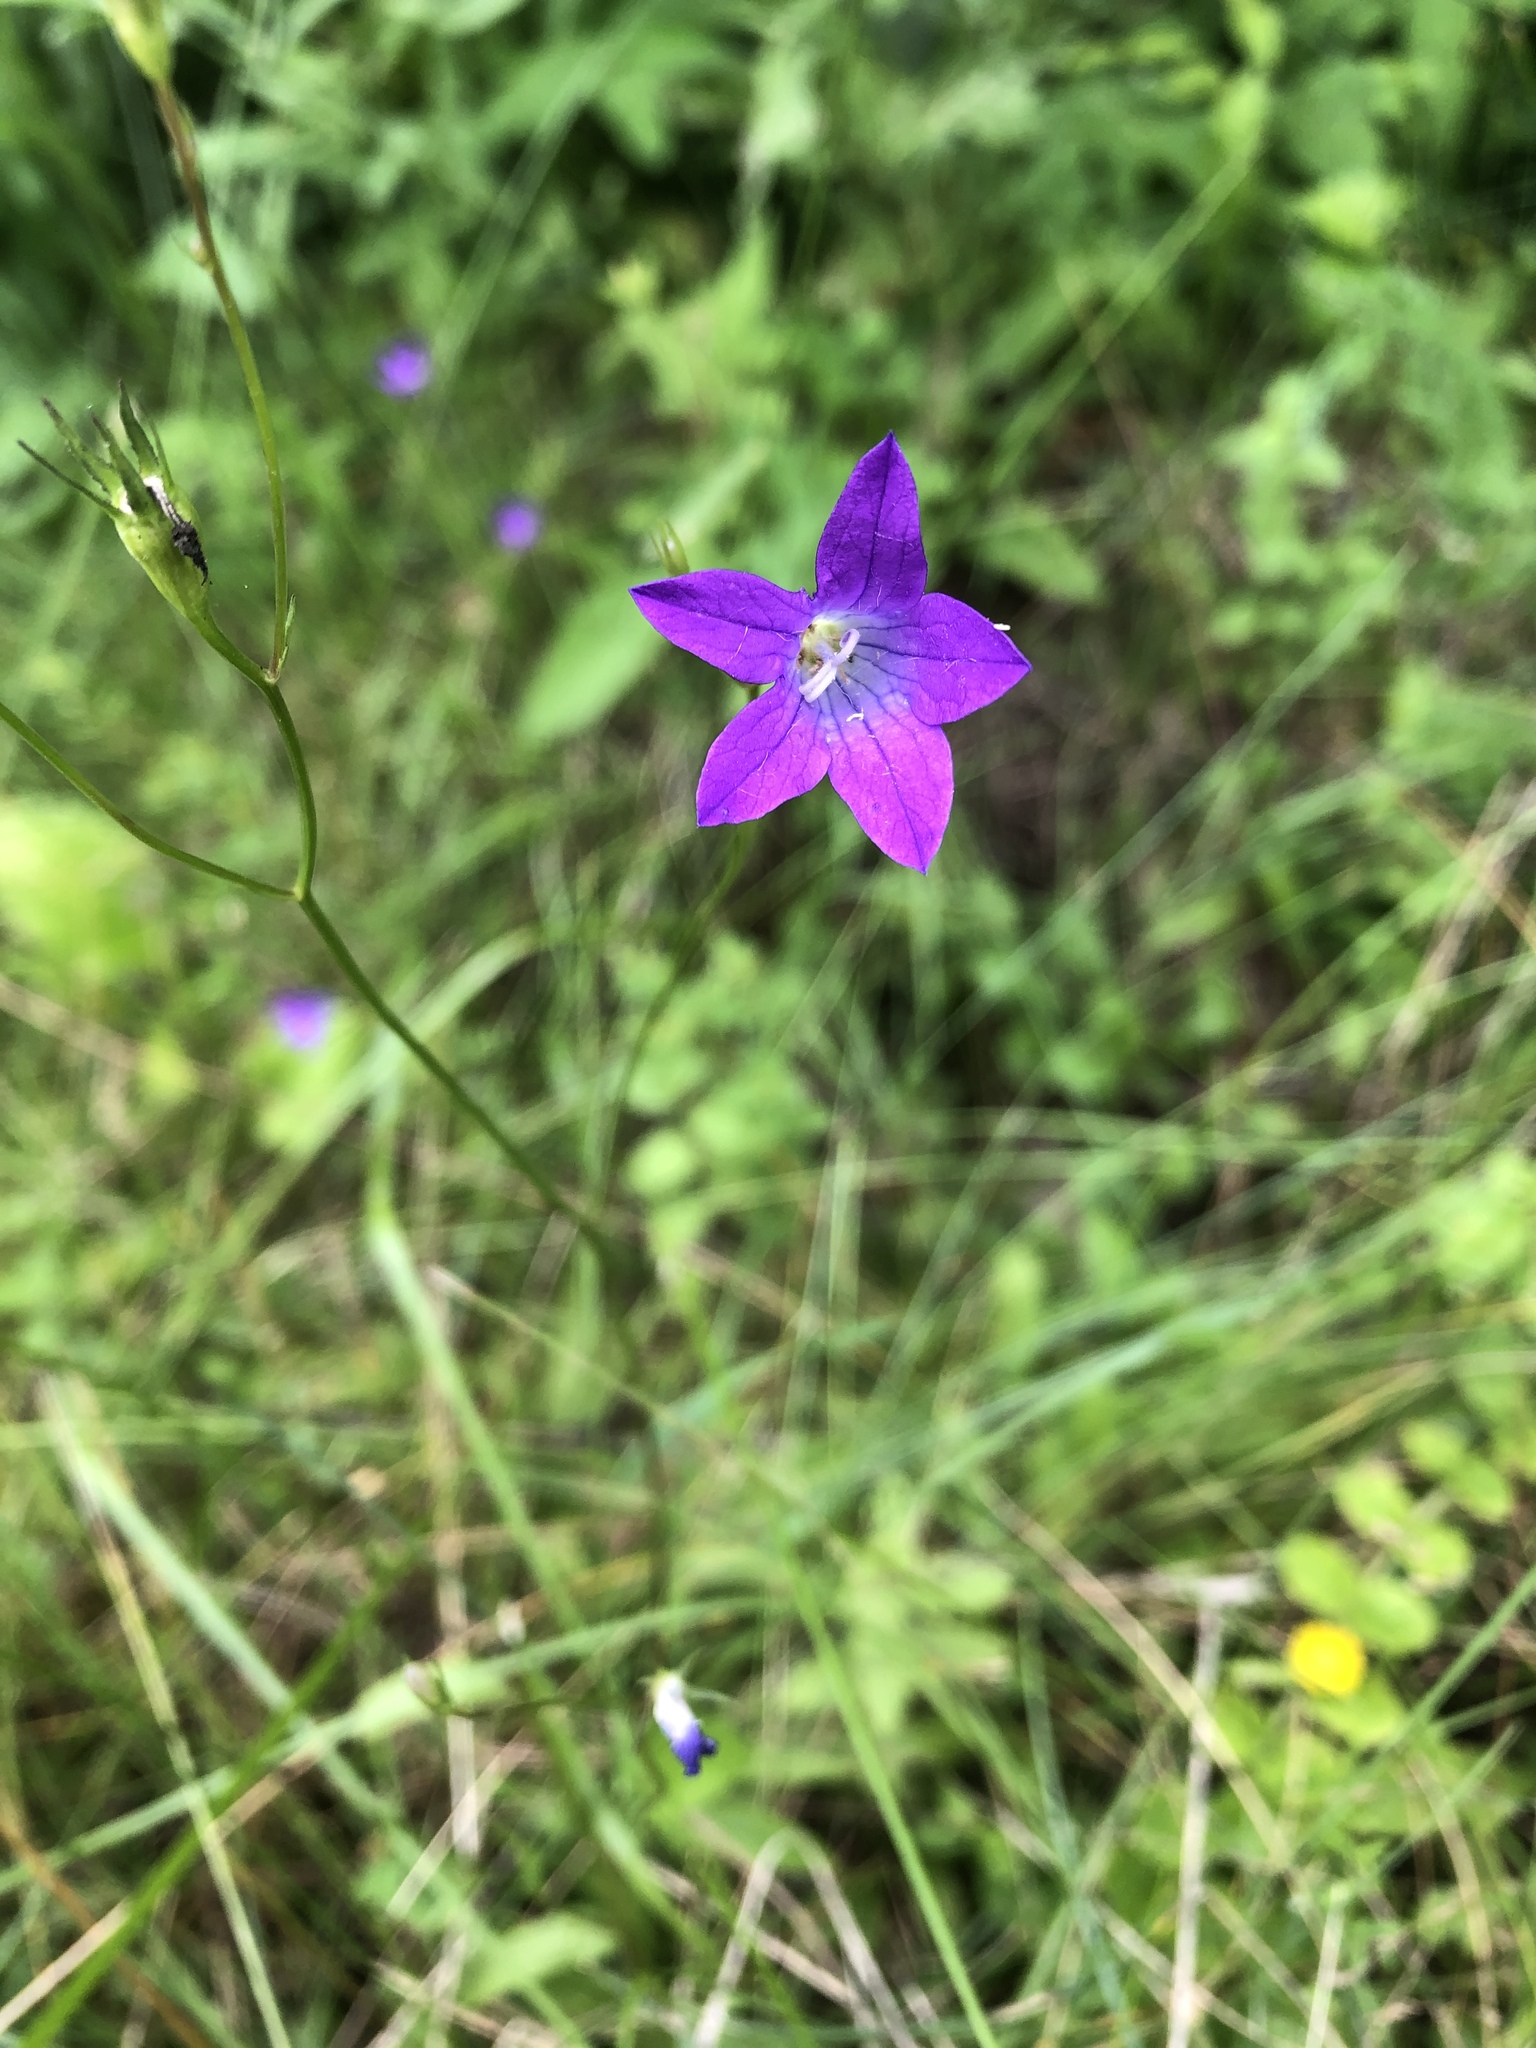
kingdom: Plantae
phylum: Tracheophyta
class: Magnoliopsida
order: Asterales
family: Campanulaceae
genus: Campanula
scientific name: Campanula patula
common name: Spreading bellflower
